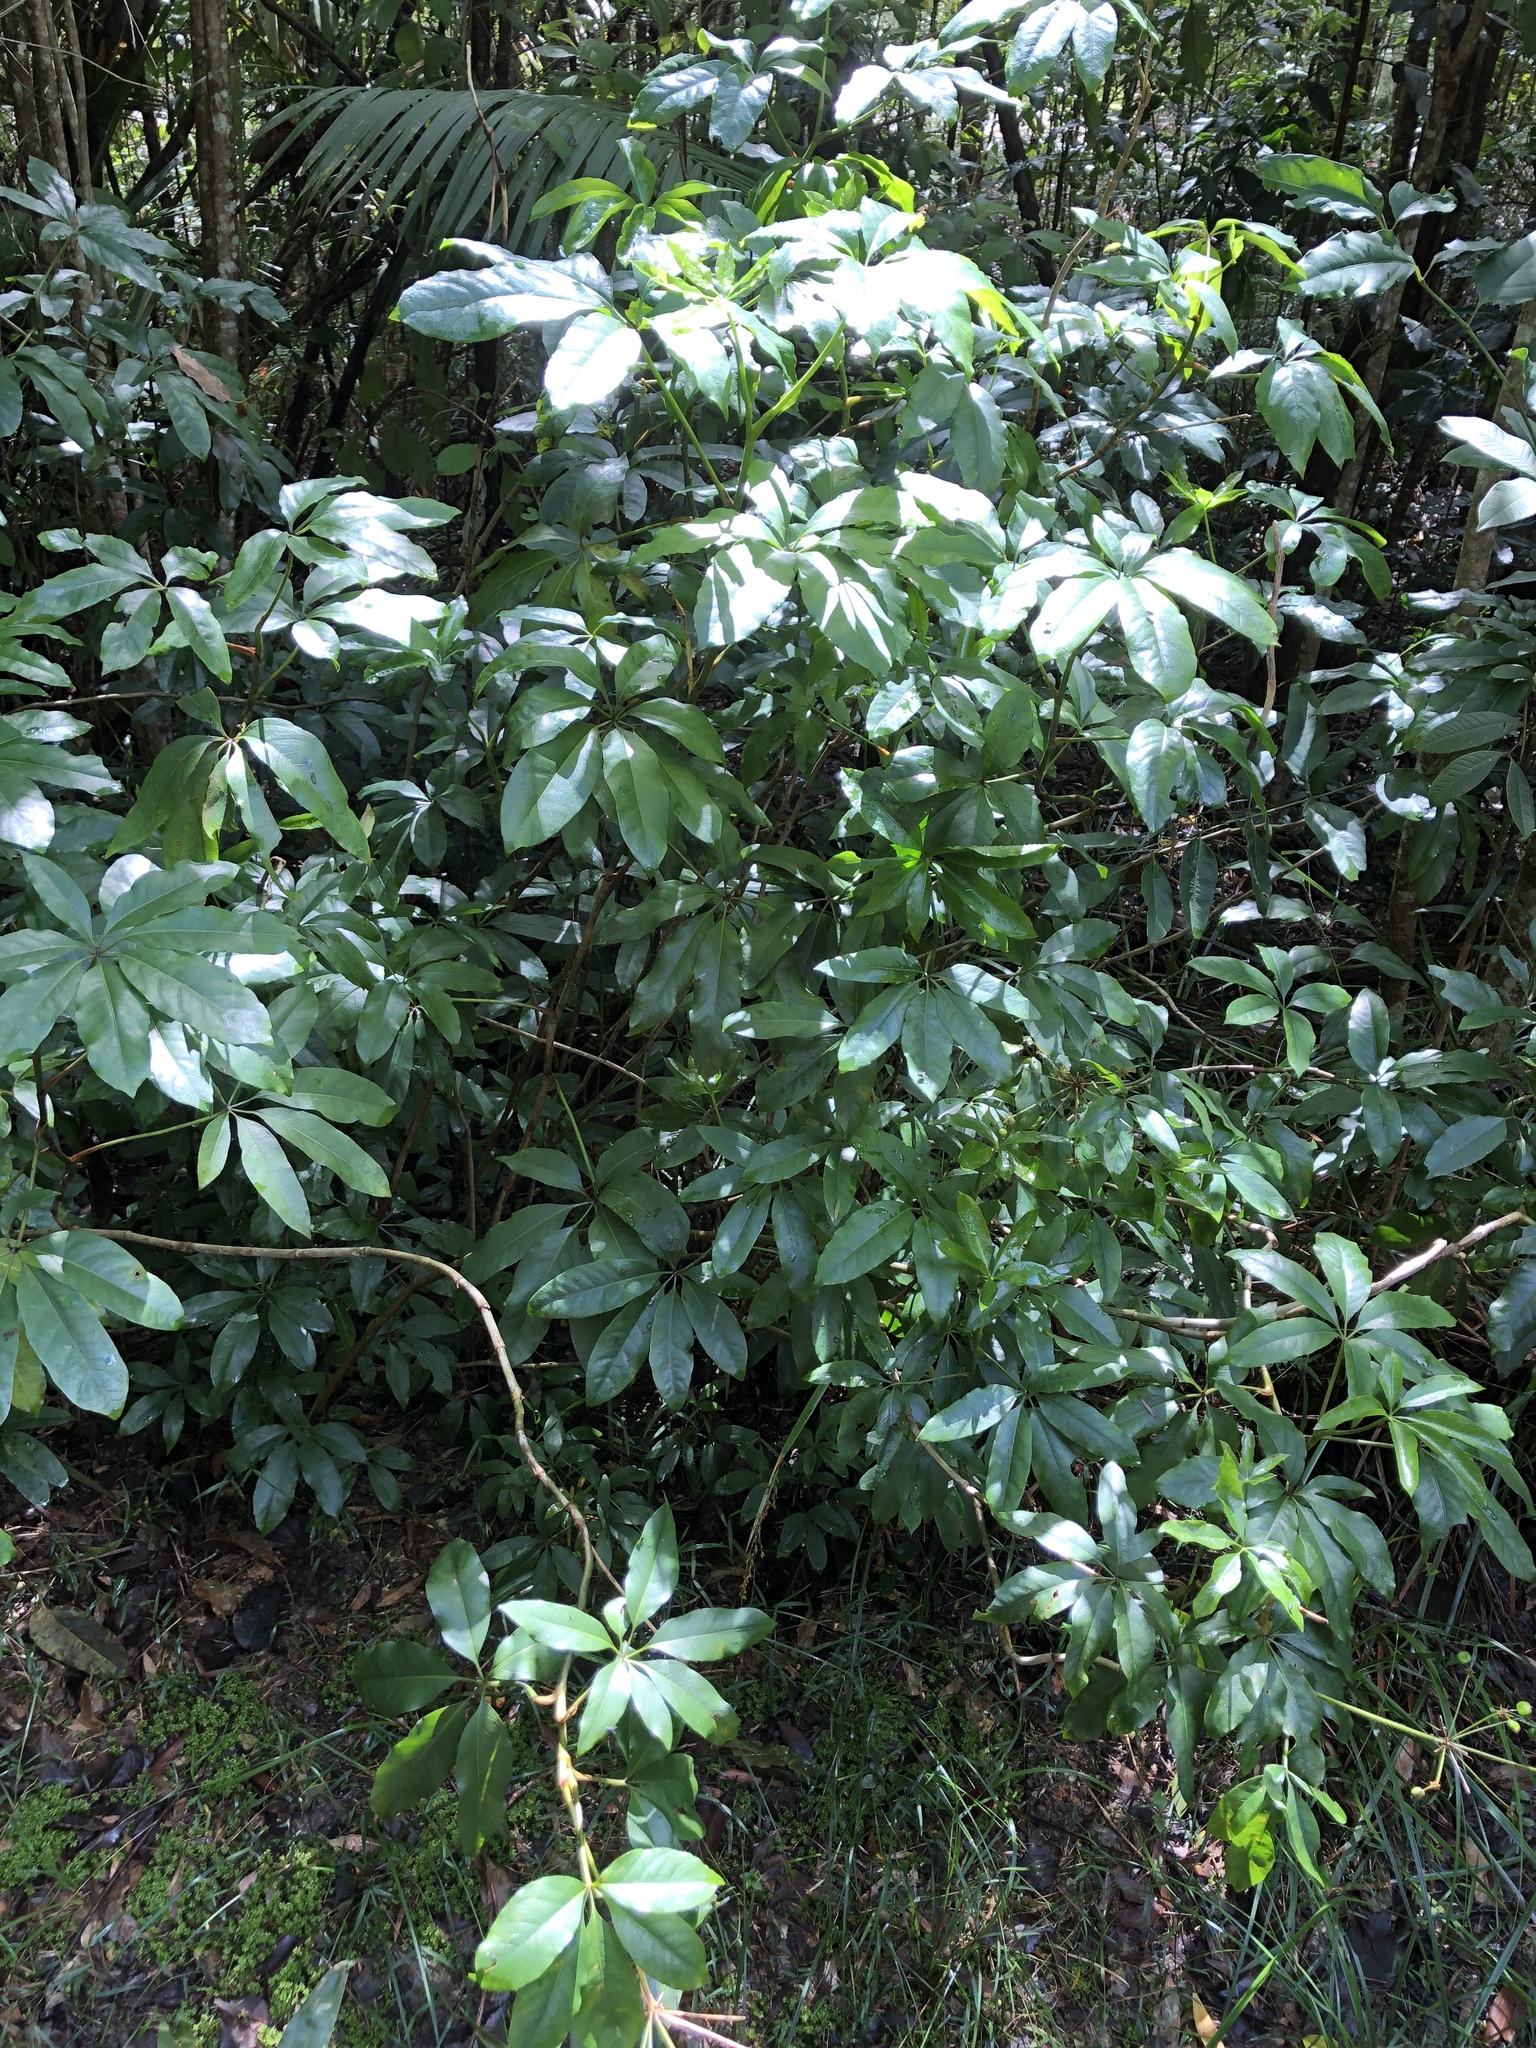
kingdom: Plantae
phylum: Tracheophyta
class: Magnoliopsida
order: Apiales
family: Apiaceae
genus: Mackinlaya
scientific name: Mackinlaya macrosciadea
